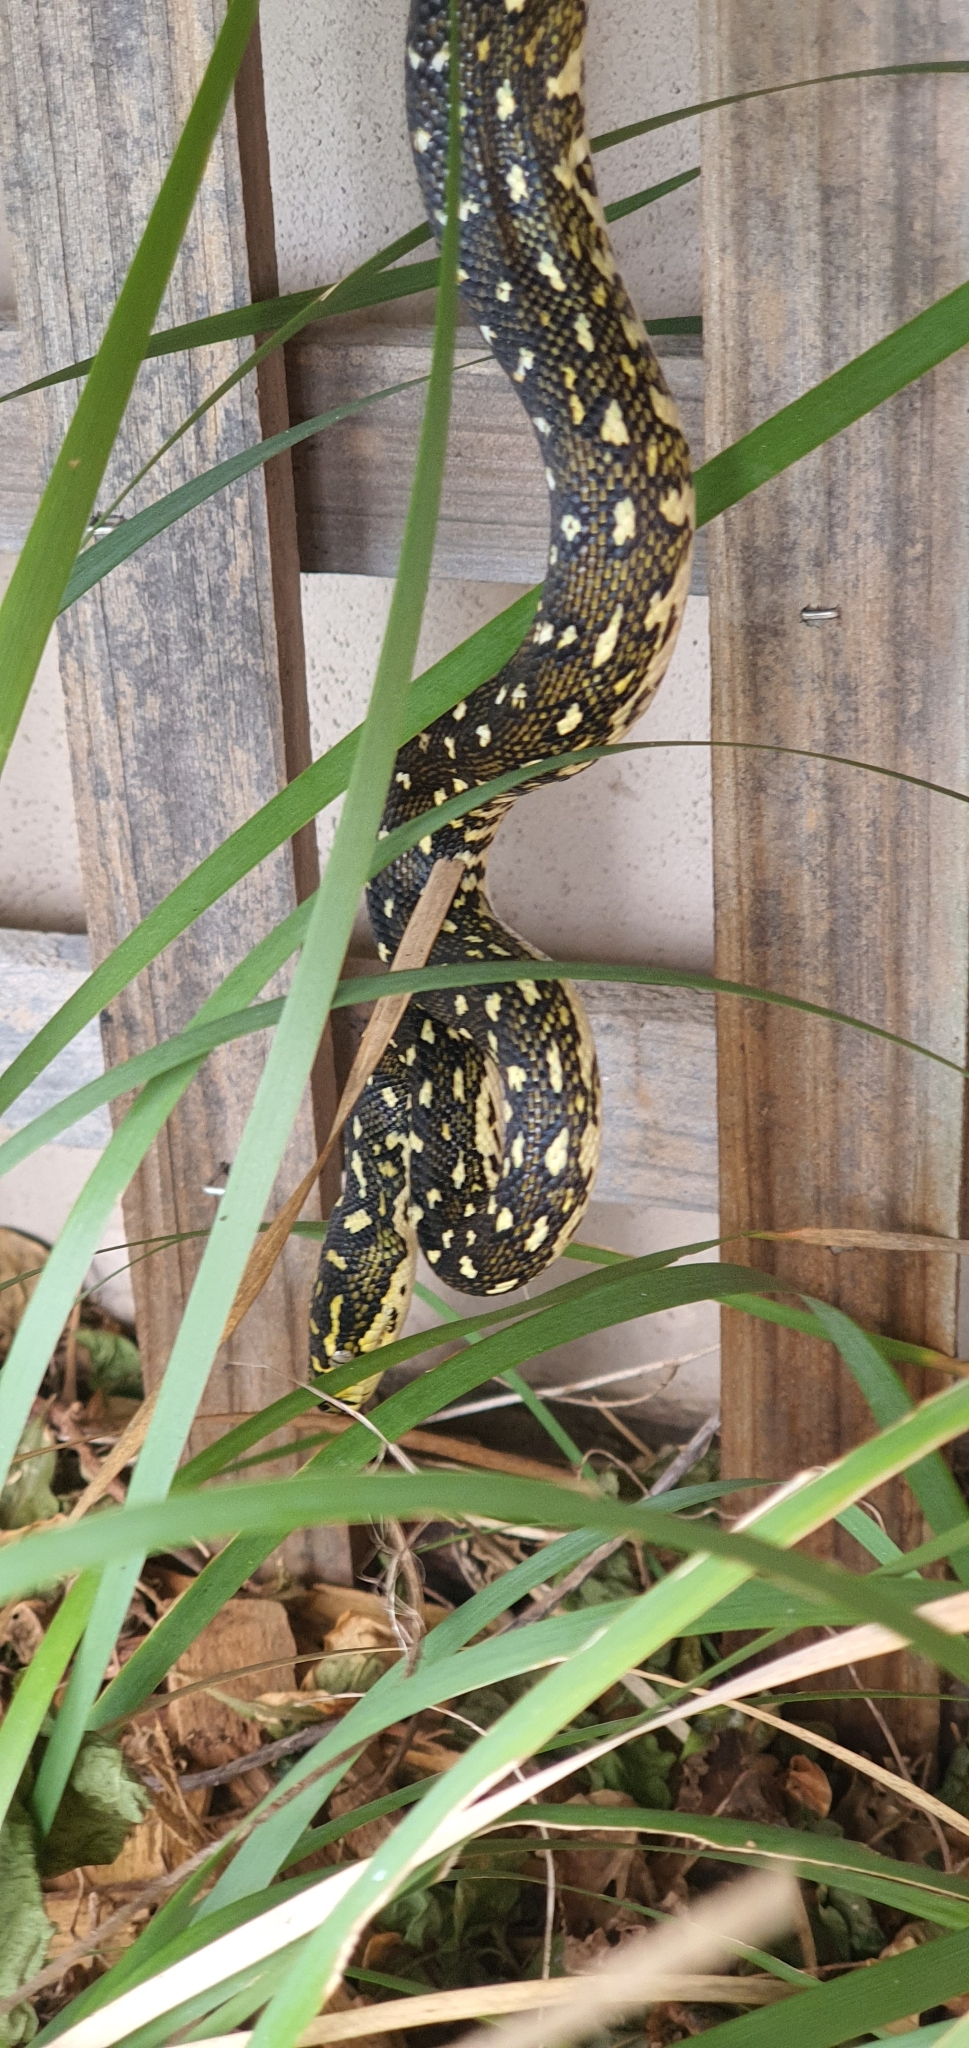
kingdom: Animalia
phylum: Chordata
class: Squamata
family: Pythonidae
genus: Morelia
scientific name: Morelia spilota
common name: Carpet python
